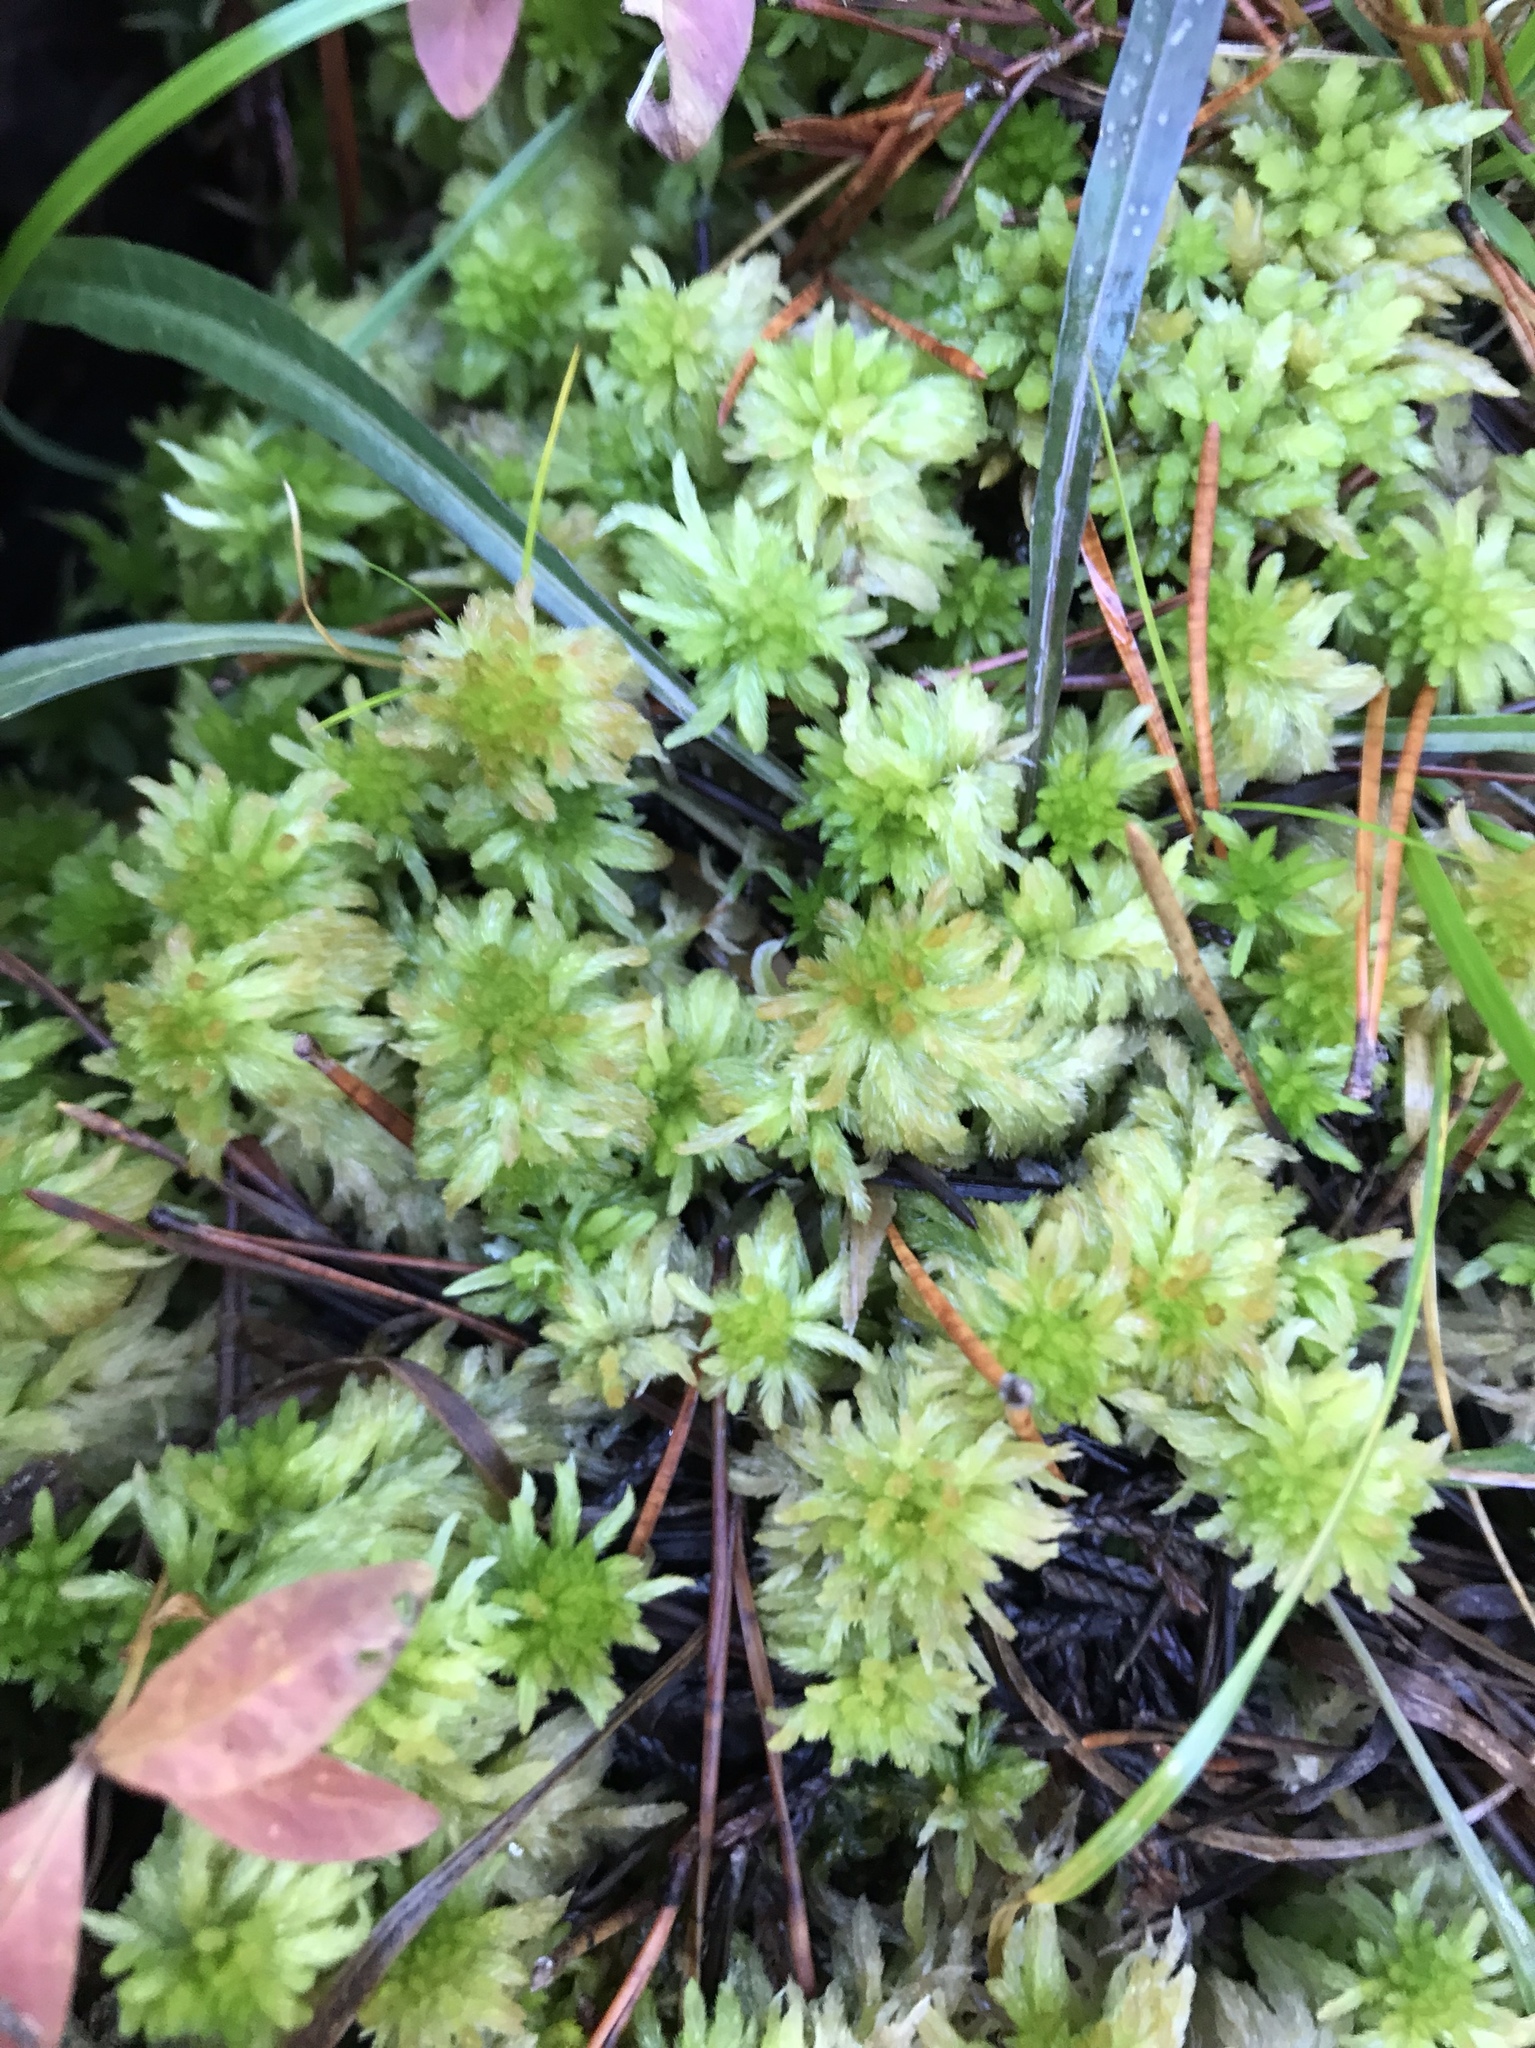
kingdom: Plantae
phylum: Bryophyta
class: Sphagnopsida
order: Sphagnales
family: Sphagnaceae
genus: Sphagnum
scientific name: Sphagnum pacificum
